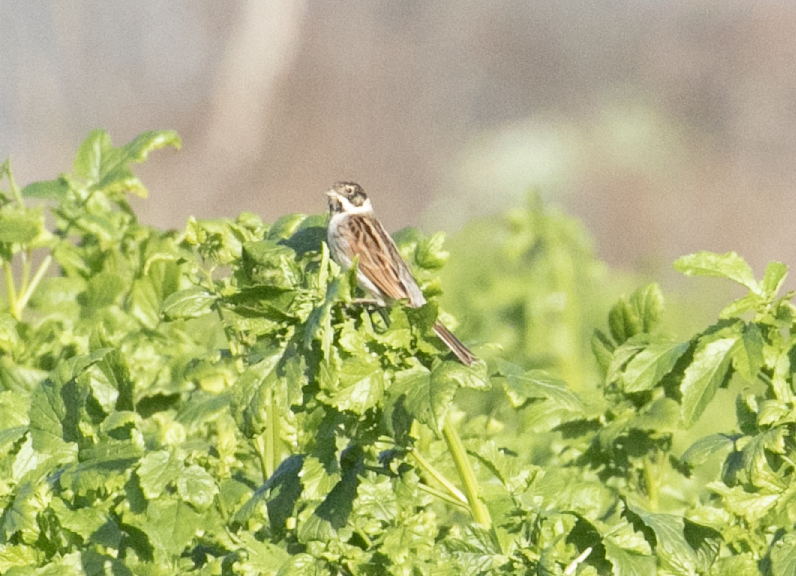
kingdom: Animalia
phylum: Chordata
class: Aves
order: Passeriformes
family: Emberizidae
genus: Emberiza
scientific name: Emberiza schoeniclus
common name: Reed bunting
